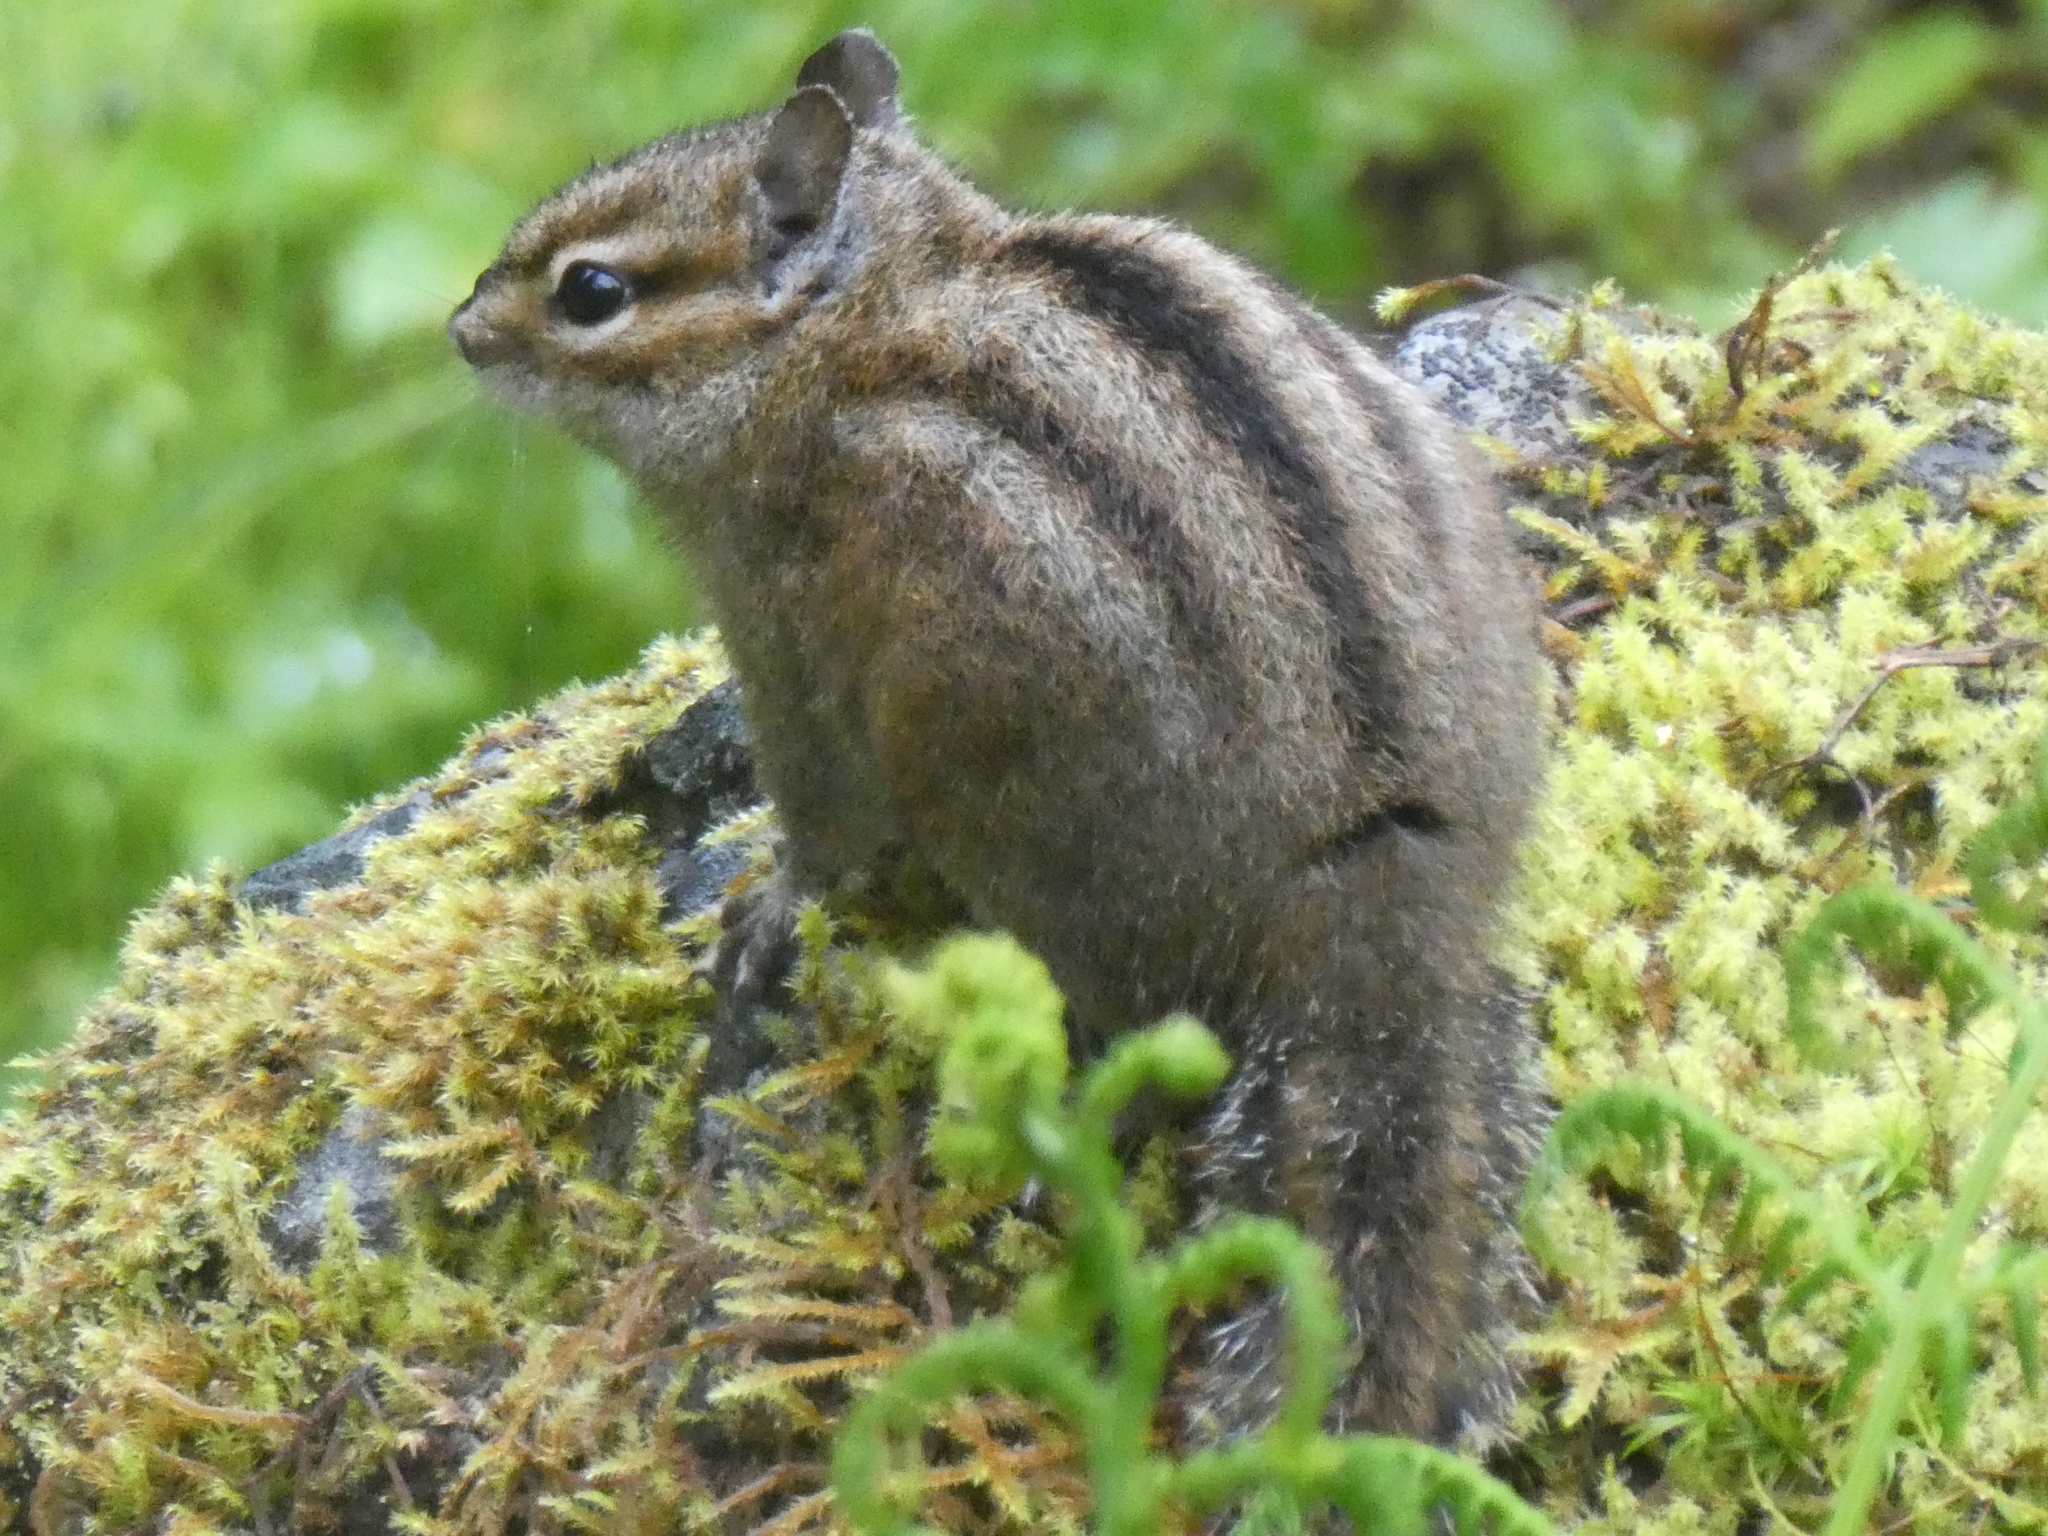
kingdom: Animalia
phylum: Chordata
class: Mammalia
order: Rodentia
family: Sciuridae
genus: Tamias
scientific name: Tamias townsendii
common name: Townsend's chipmunk
